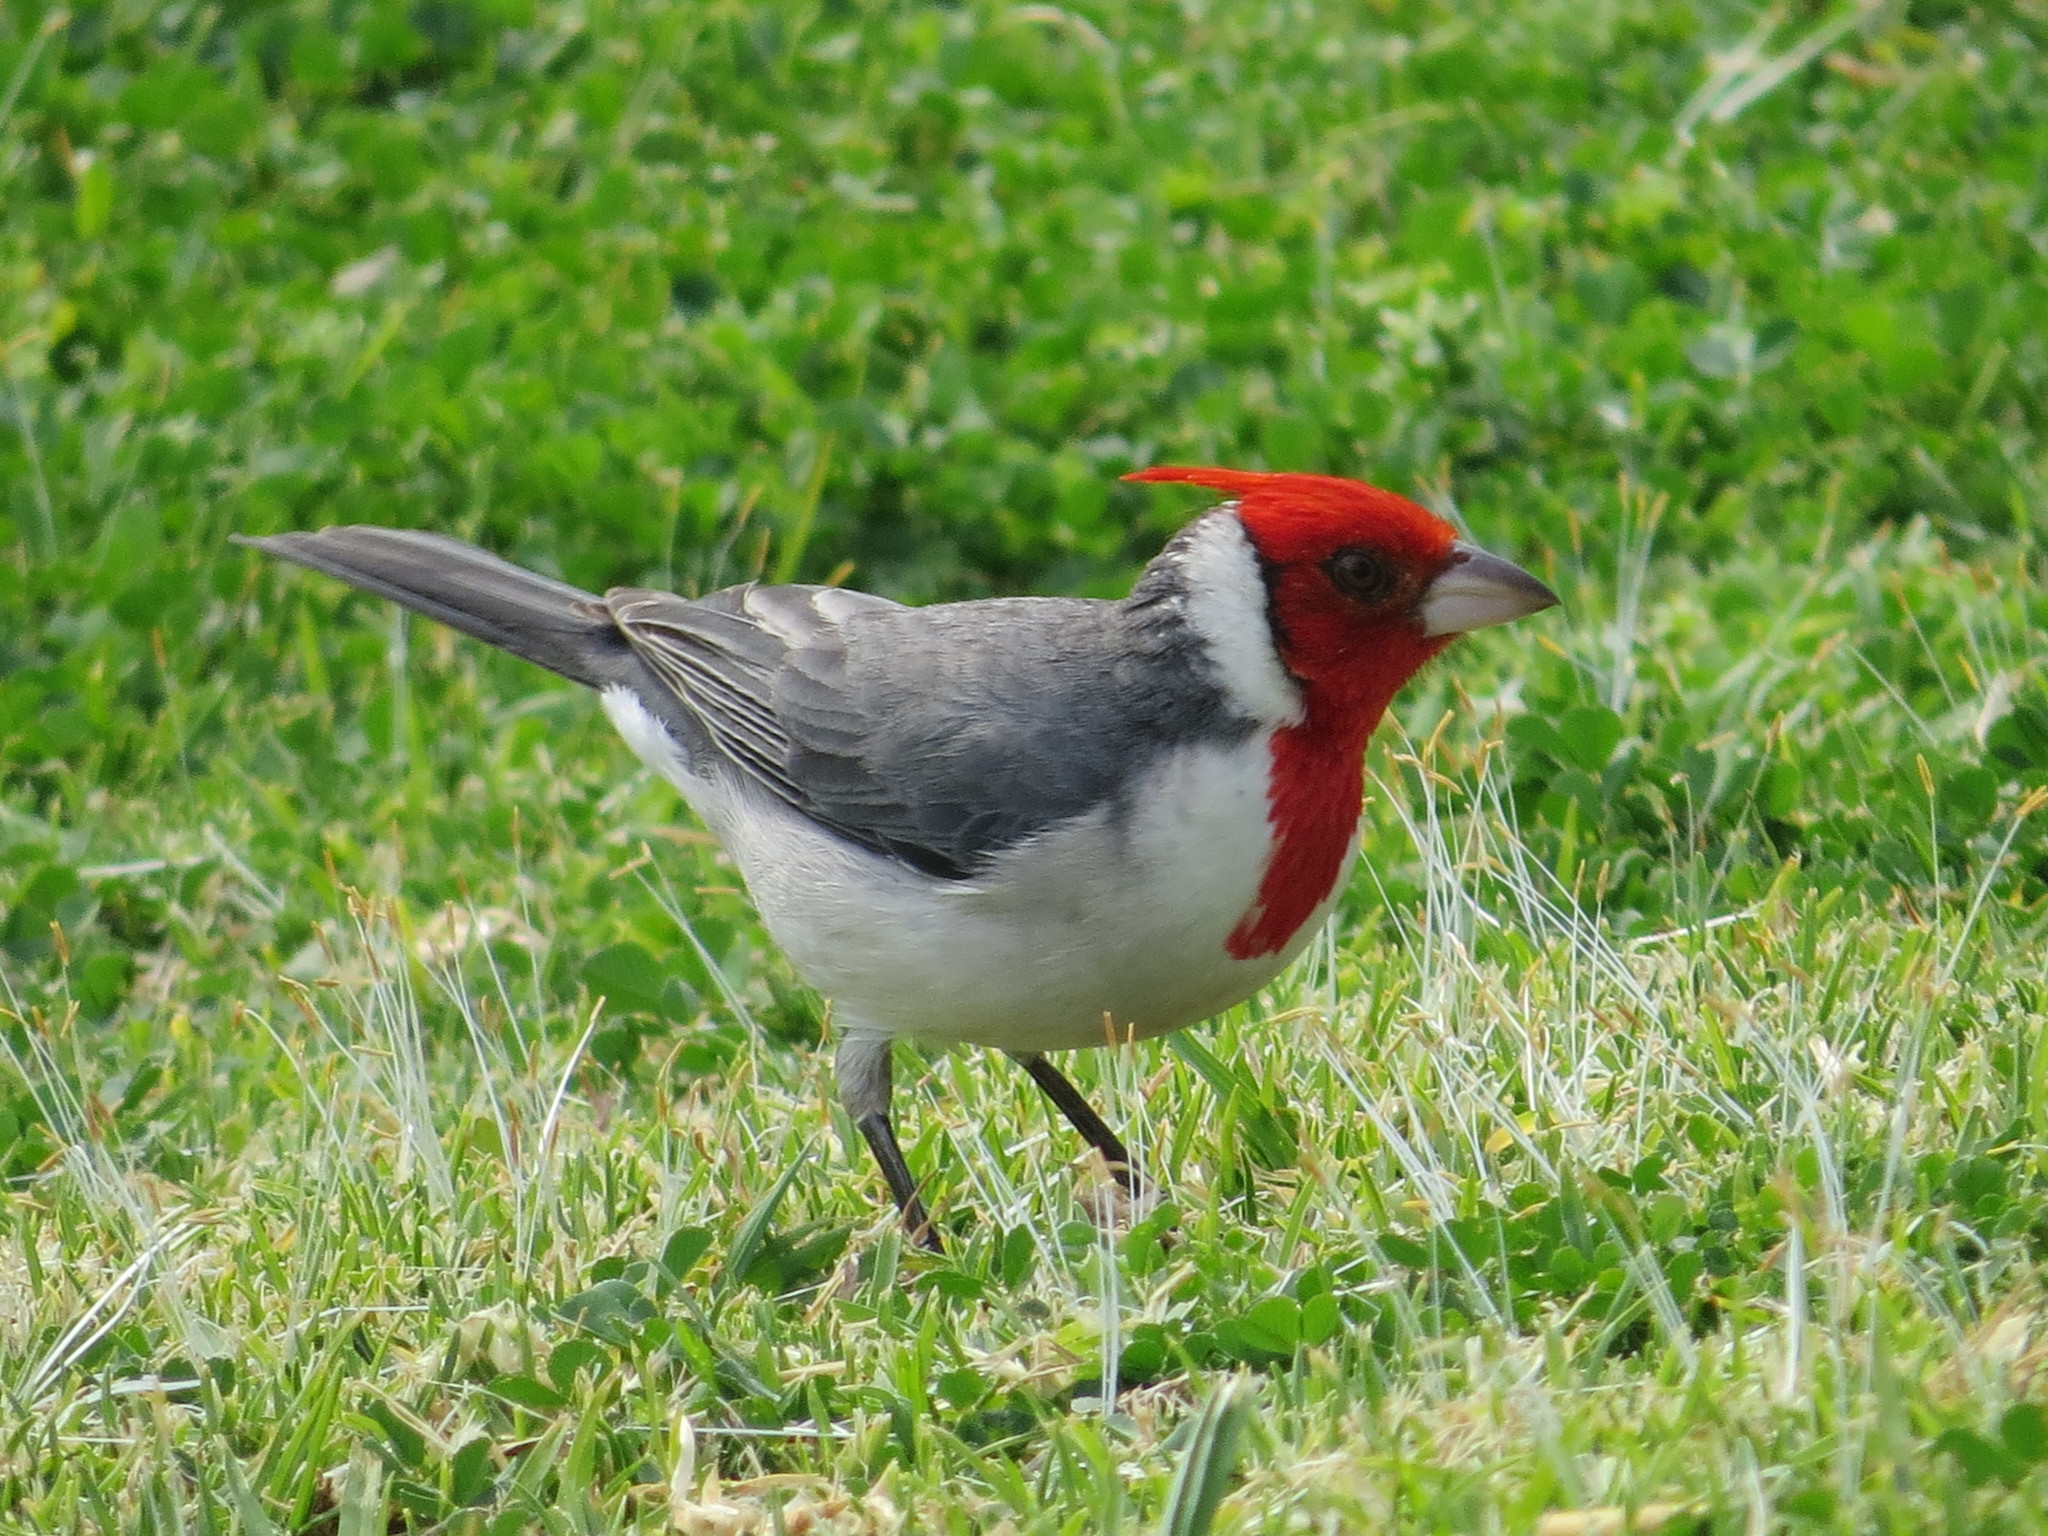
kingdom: Animalia
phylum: Chordata
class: Aves
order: Passeriformes
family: Thraupidae
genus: Paroaria
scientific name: Paroaria coronata
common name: Red-crested cardinal
